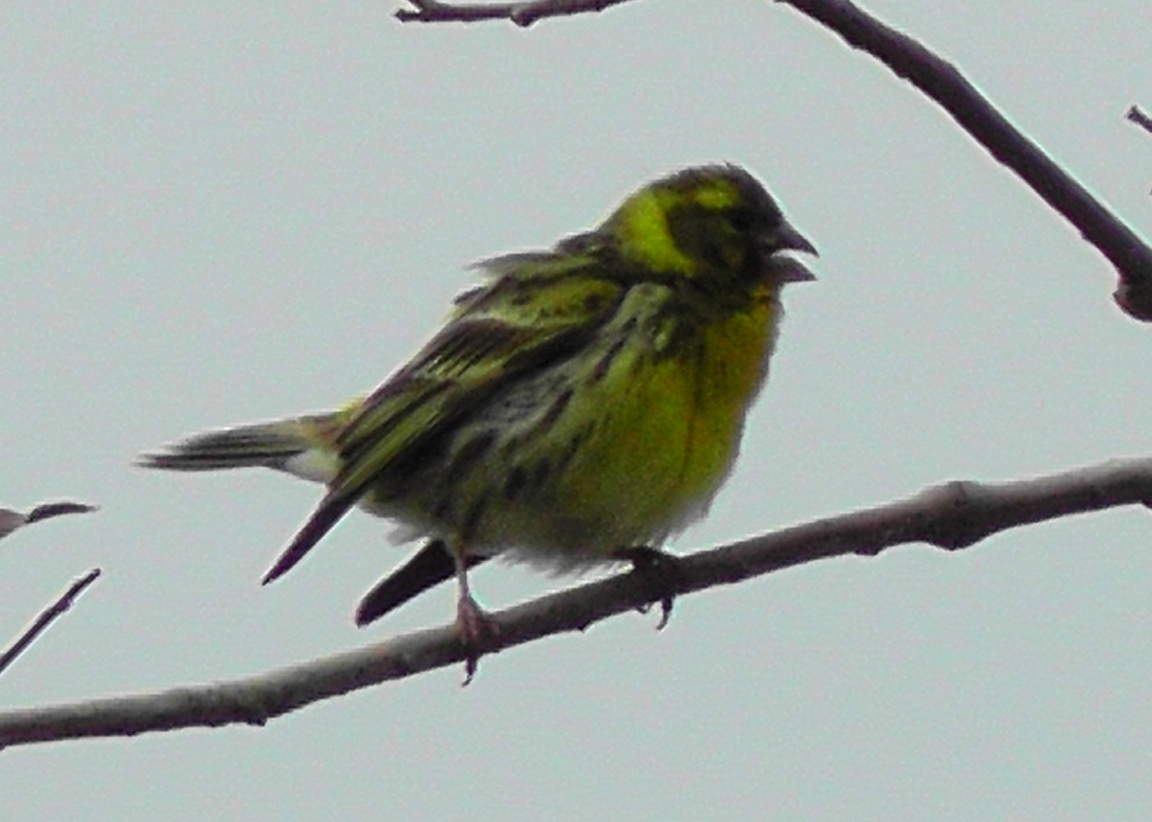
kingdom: Animalia
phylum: Chordata
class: Aves
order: Passeriformes
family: Fringillidae
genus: Serinus
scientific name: Serinus serinus
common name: European serin
